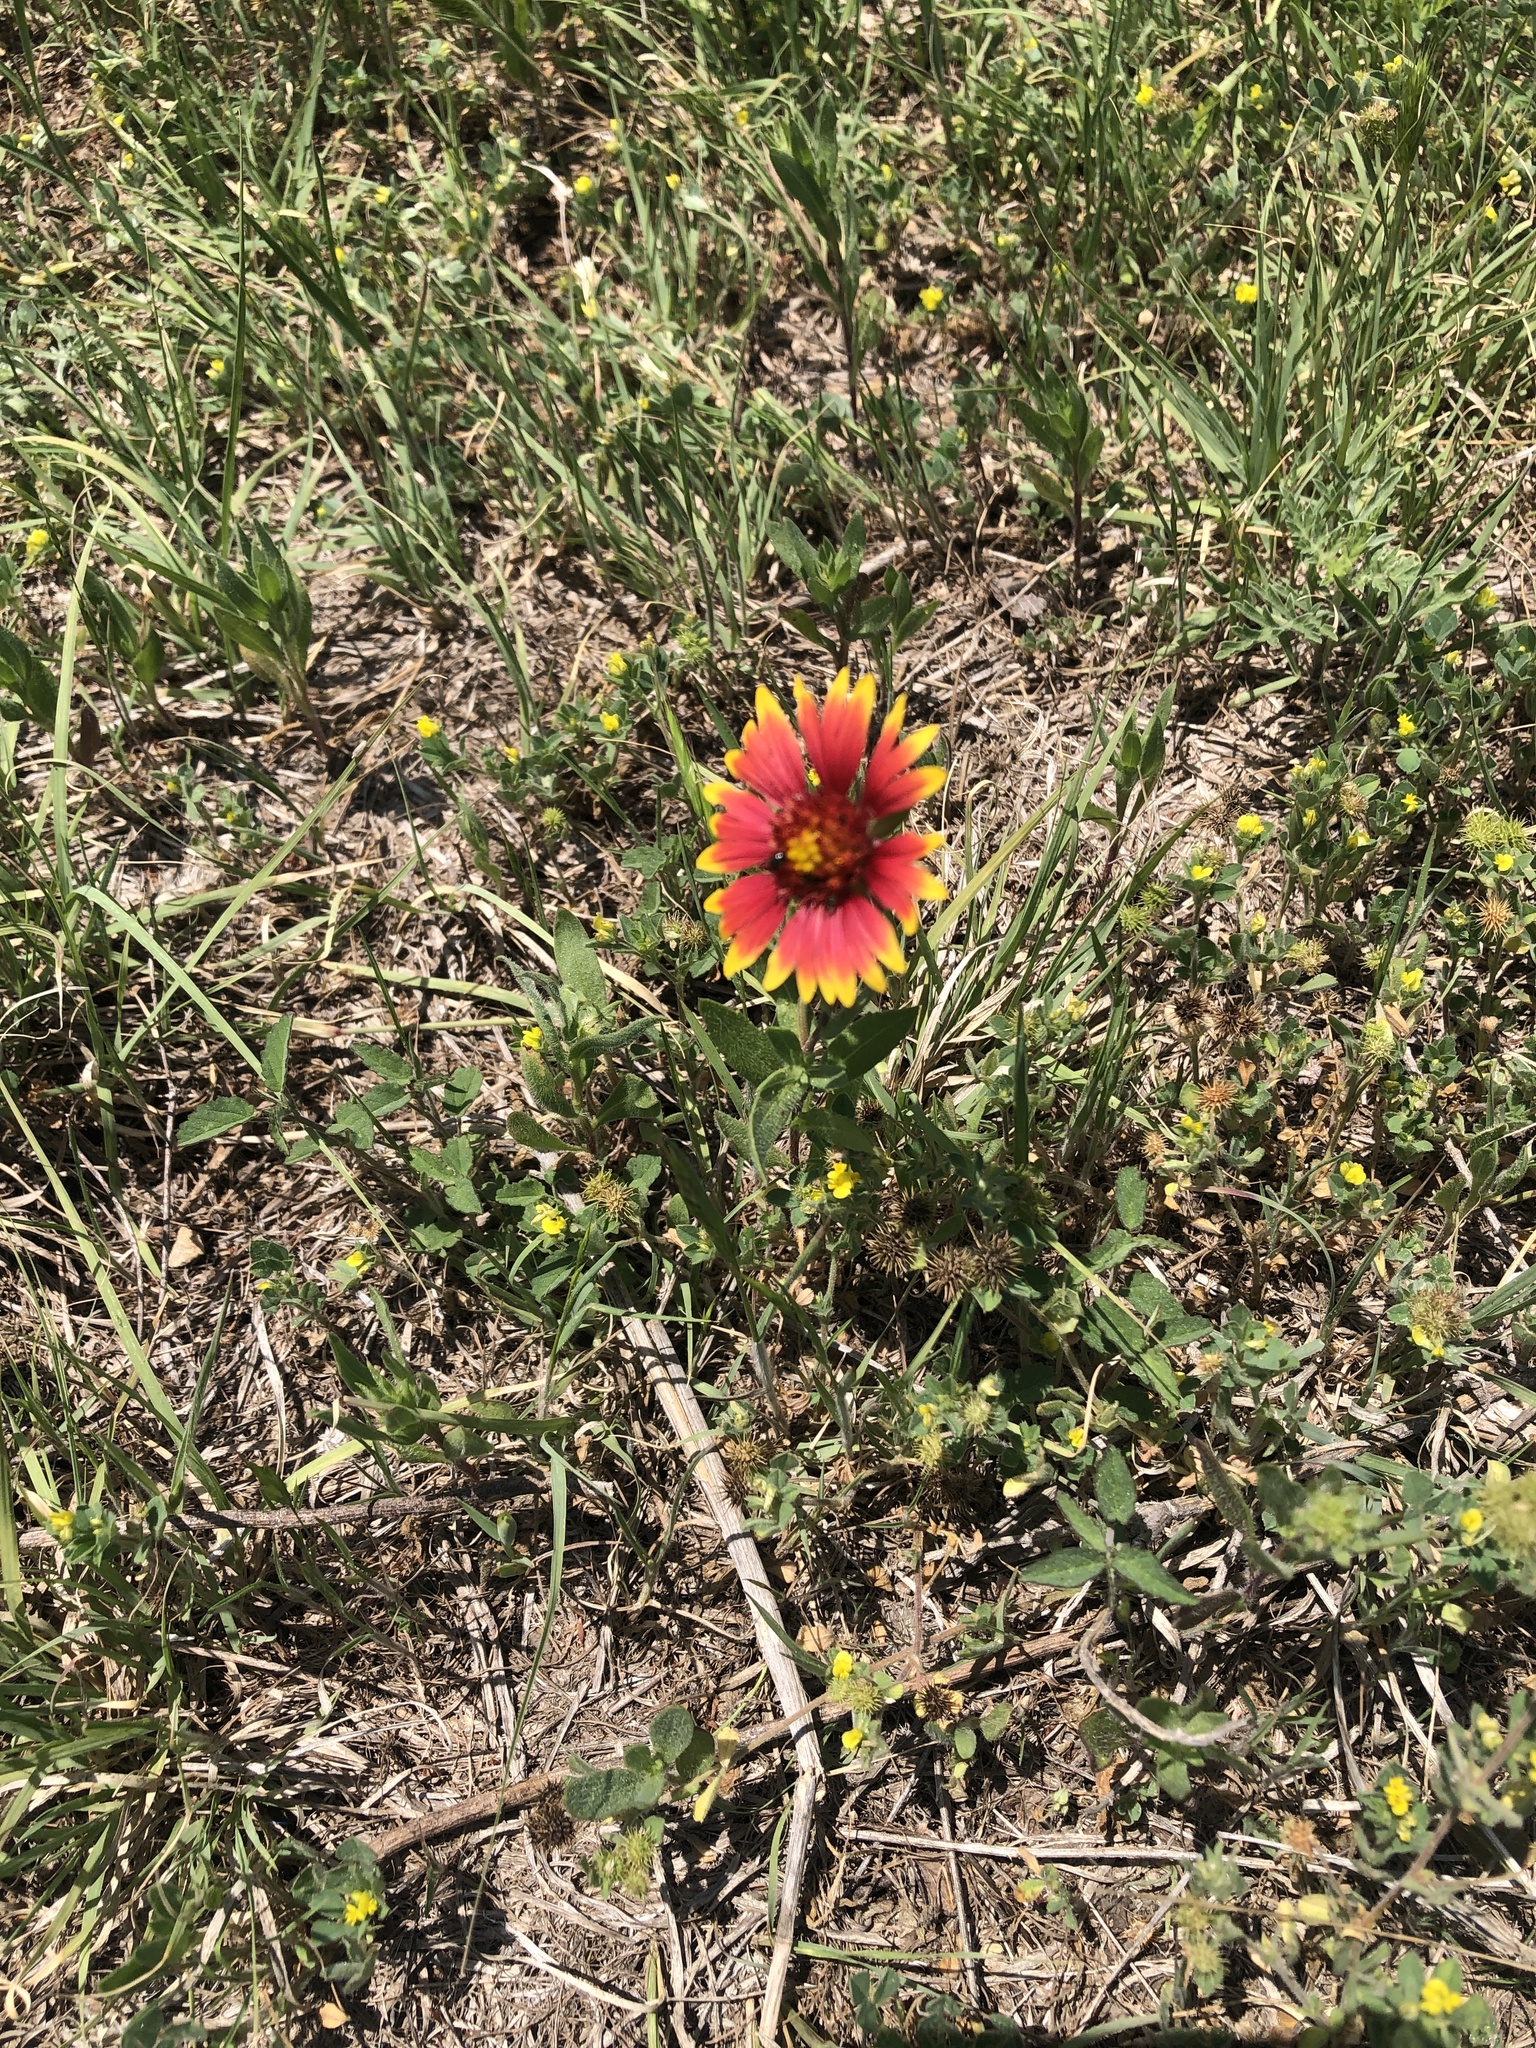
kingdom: Plantae
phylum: Tracheophyta
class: Magnoliopsida
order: Asterales
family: Asteraceae
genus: Gaillardia
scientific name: Gaillardia pulchella
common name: Firewheel
